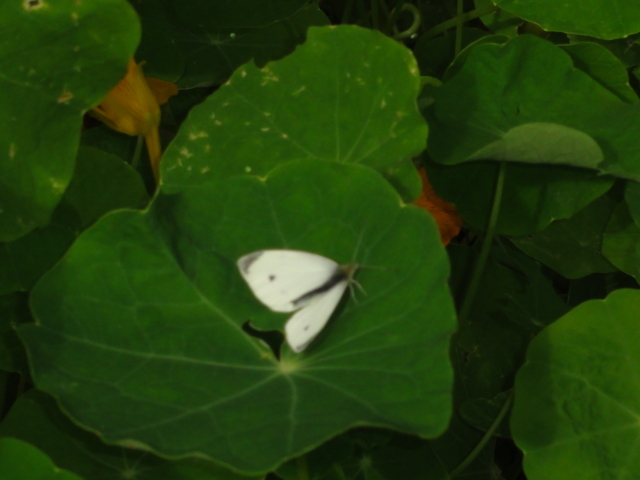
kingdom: Animalia
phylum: Arthropoda
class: Insecta
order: Lepidoptera
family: Pieridae
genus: Pieris
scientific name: Pieris rapae
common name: Small white
